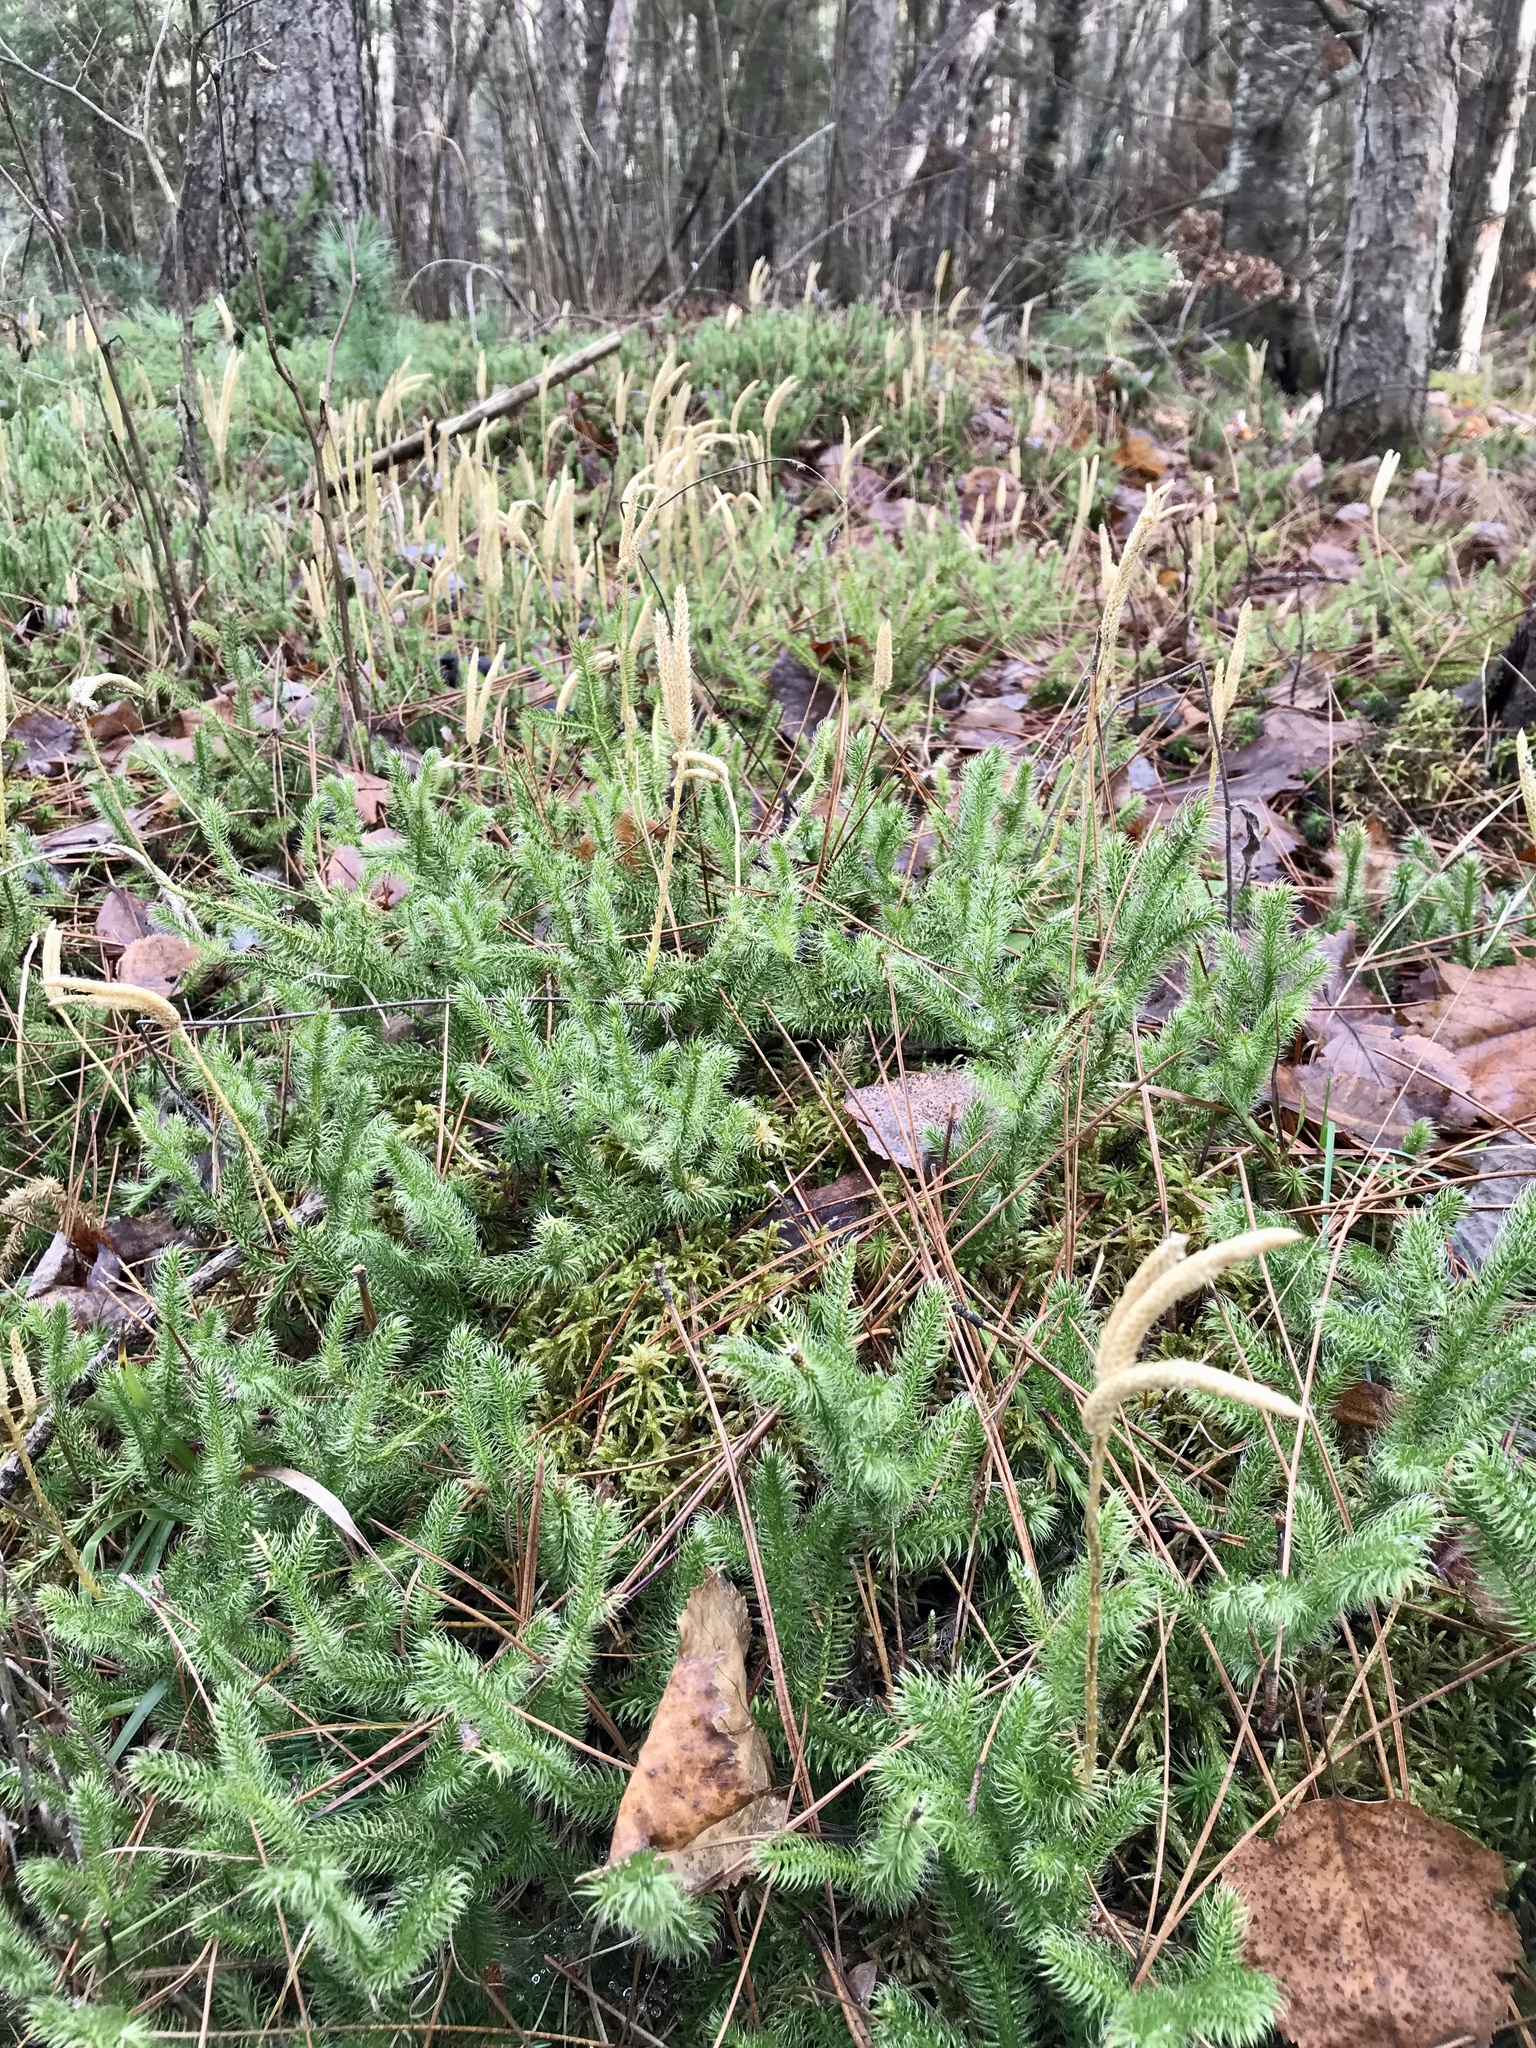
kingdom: Plantae
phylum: Tracheophyta
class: Lycopodiopsida
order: Lycopodiales
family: Lycopodiaceae
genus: Lycopodium
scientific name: Lycopodium clavatum
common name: Stag's-horn clubmoss
